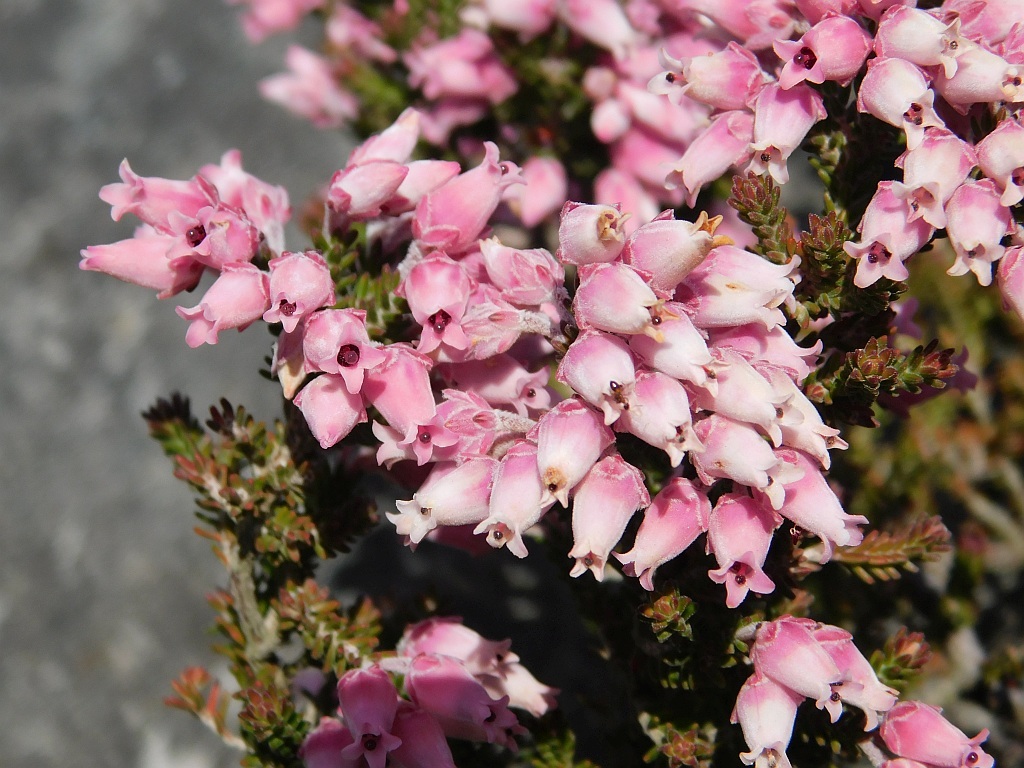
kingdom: Plantae
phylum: Tracheophyta
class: Magnoliopsida
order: Ericales
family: Ericaceae
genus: Erica
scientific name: Erica modesta
